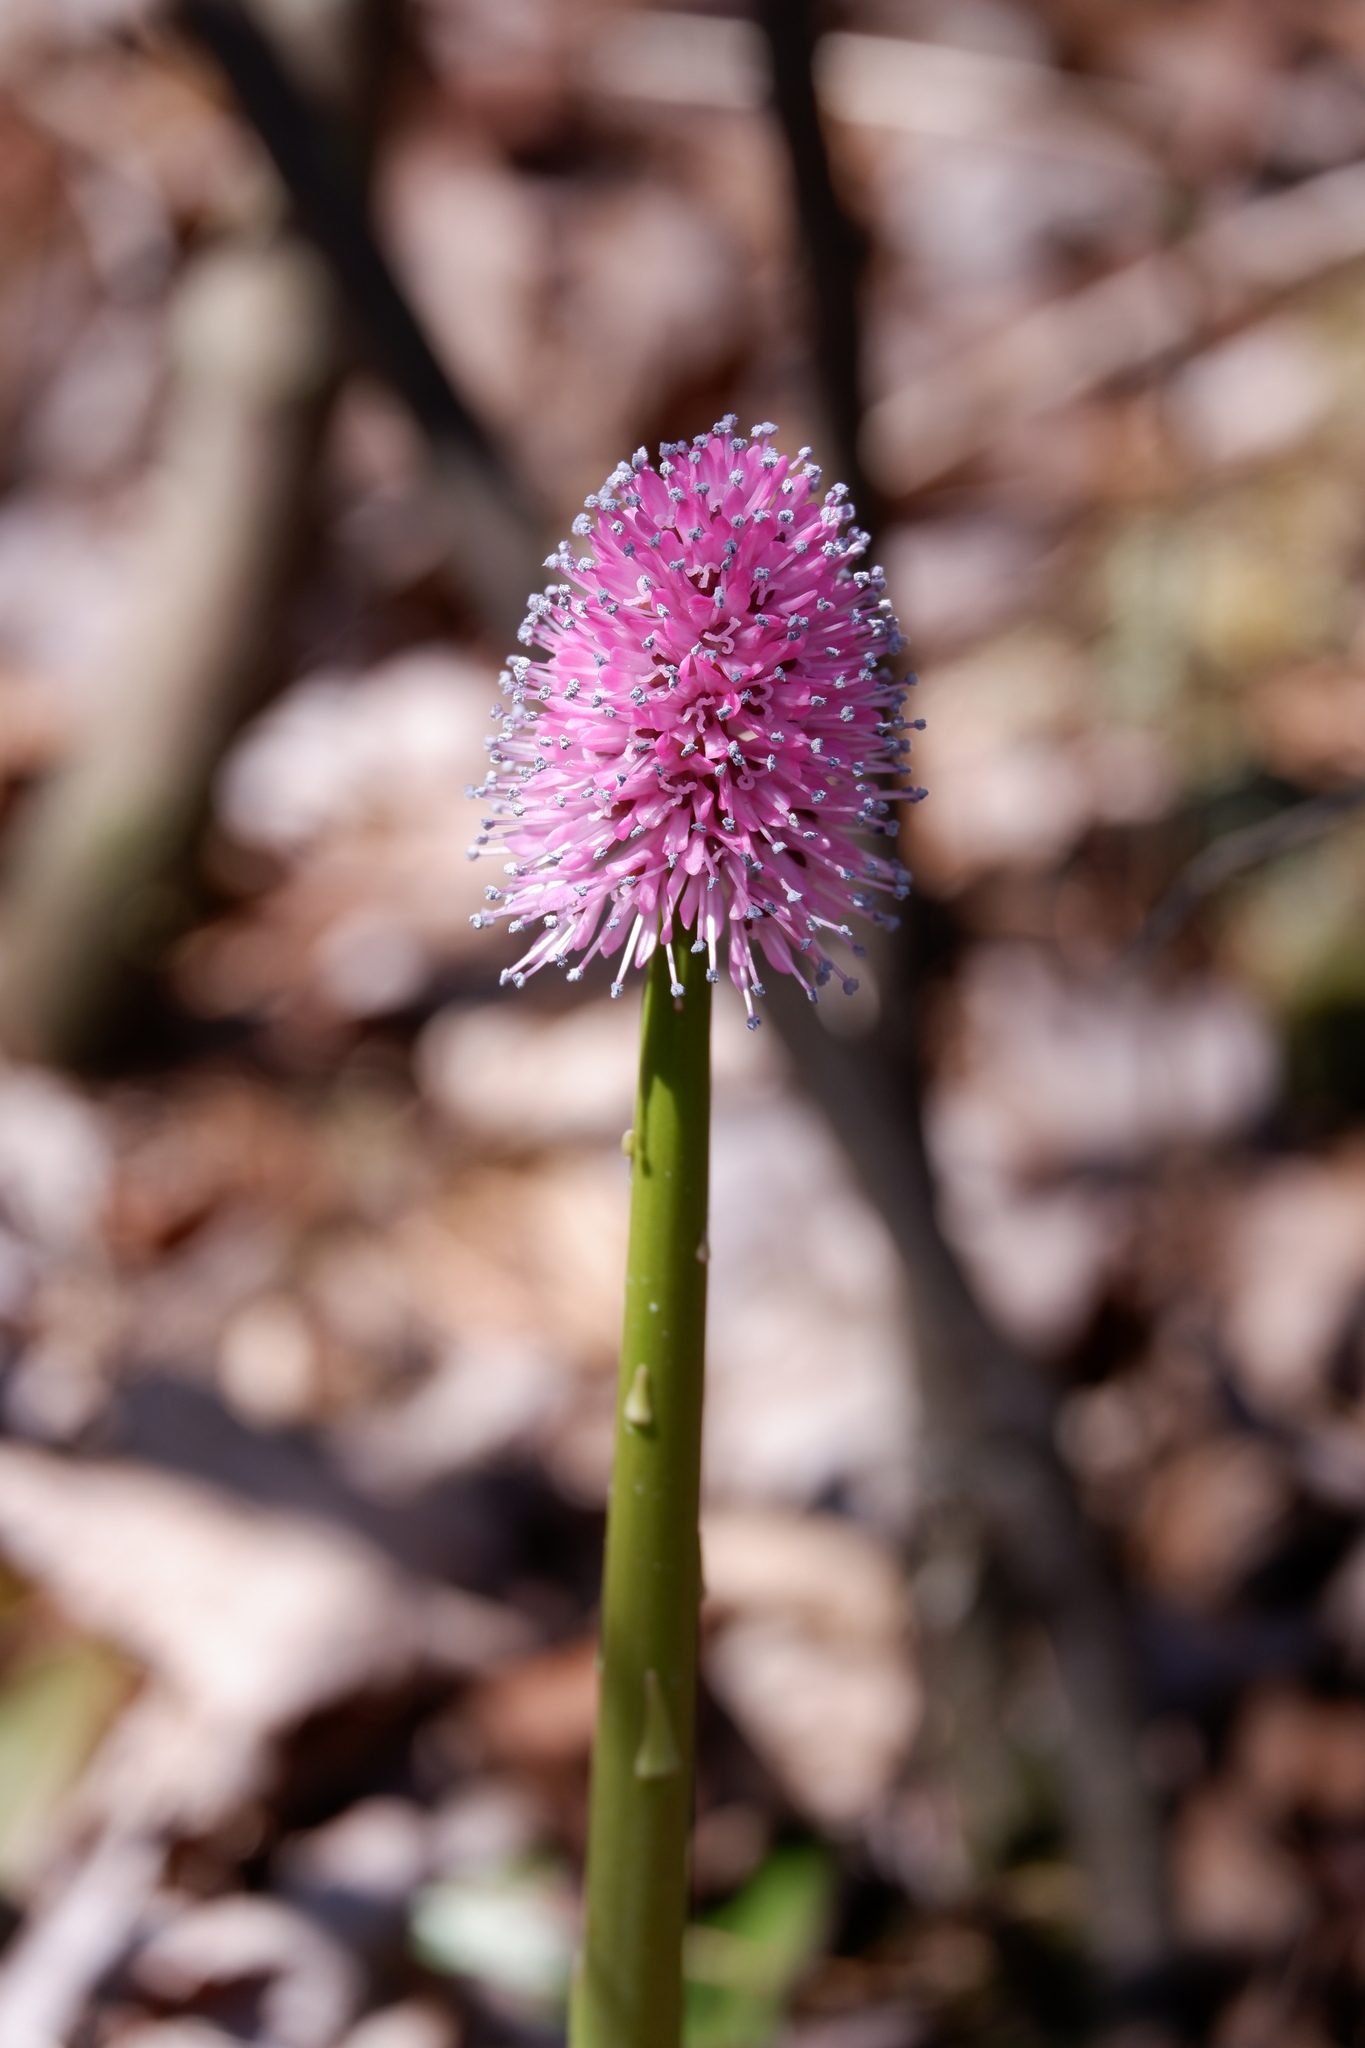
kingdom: Plantae
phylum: Tracheophyta
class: Liliopsida
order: Liliales
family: Melanthiaceae
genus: Helonias
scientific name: Helonias bullata
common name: Swamp-pink
